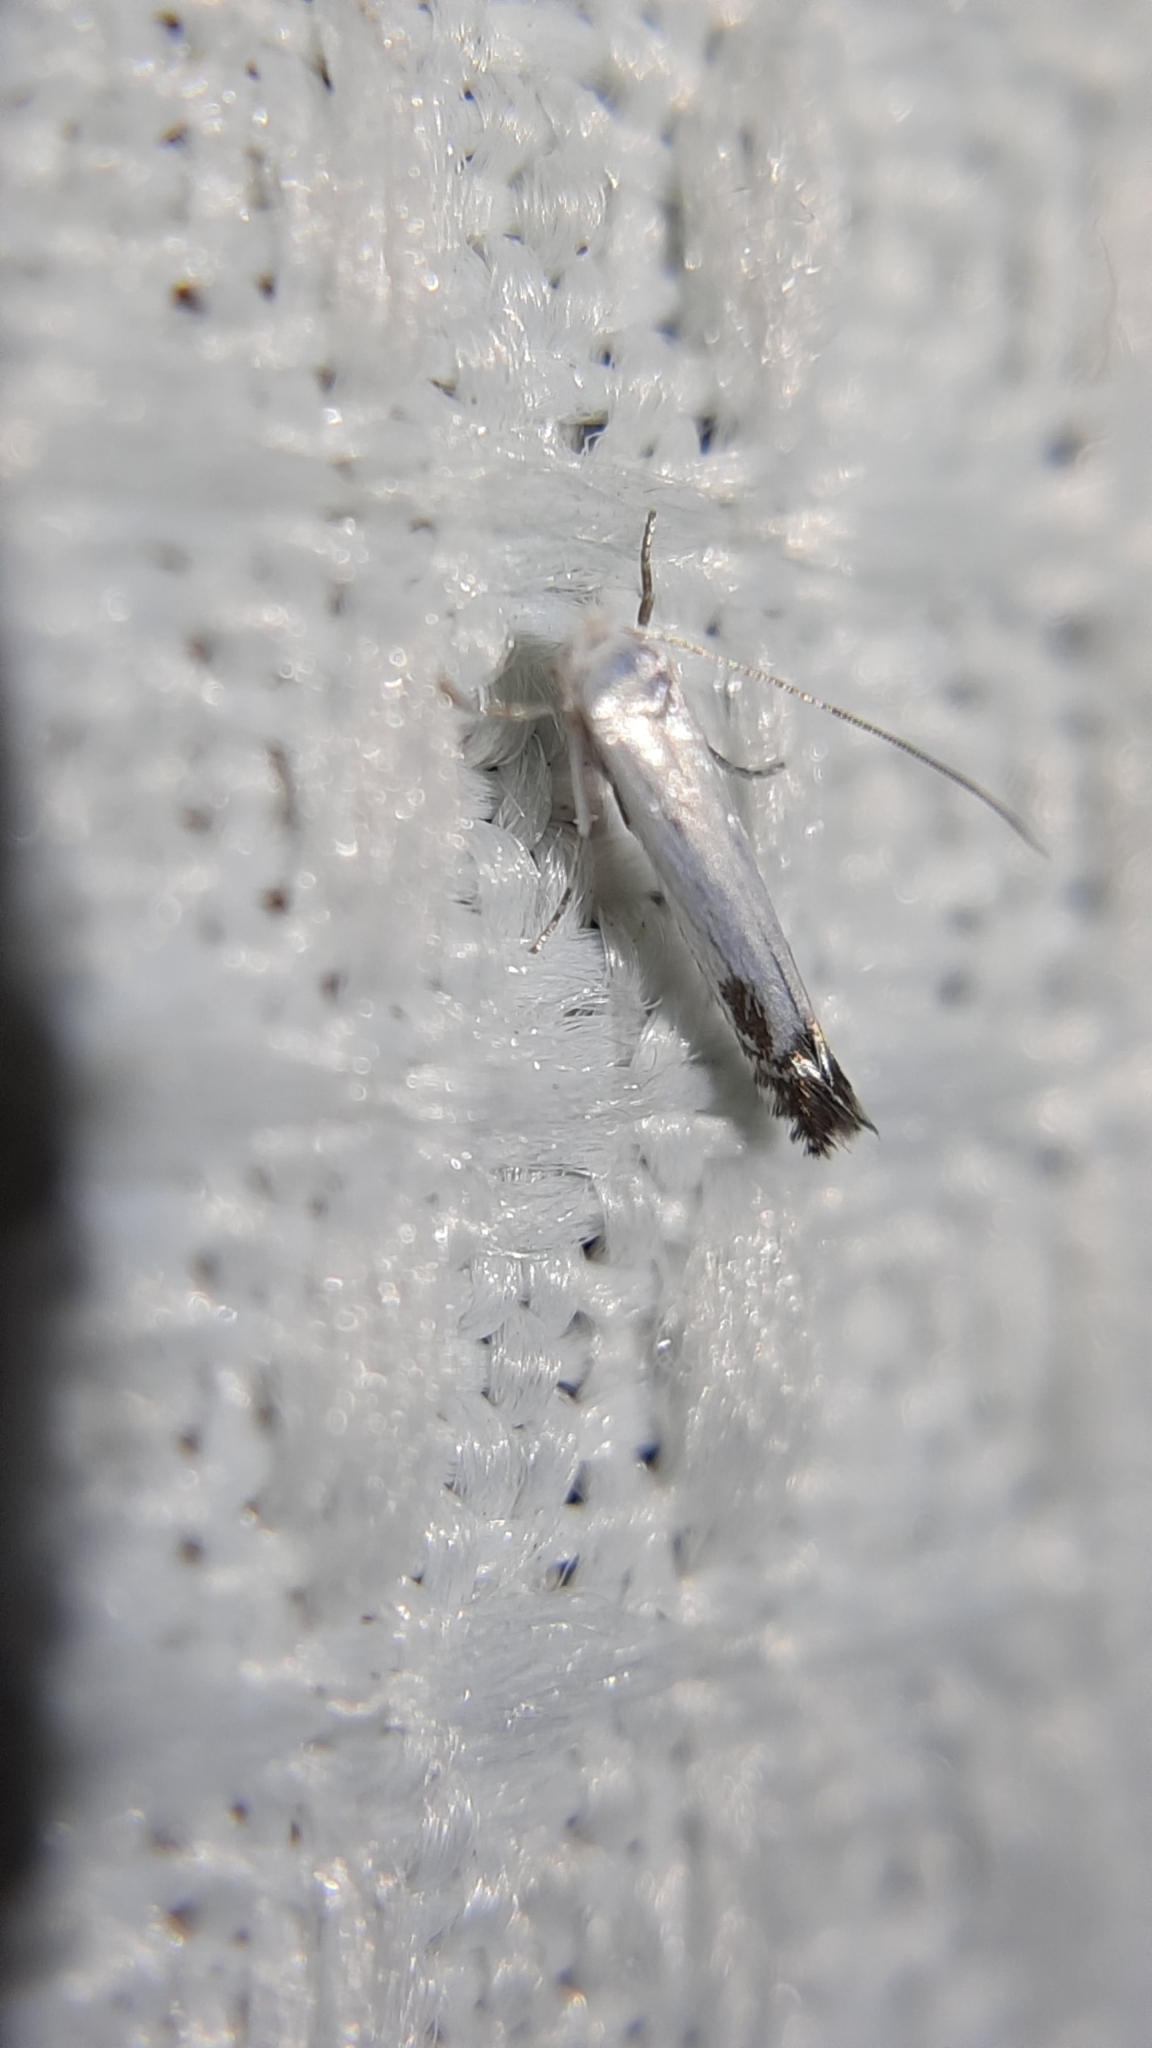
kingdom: Animalia
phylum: Arthropoda
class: Insecta
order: Lepidoptera
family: Lyonetiidae
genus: Lyonetia
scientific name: Lyonetia clerkella
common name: Apple leaf miner
